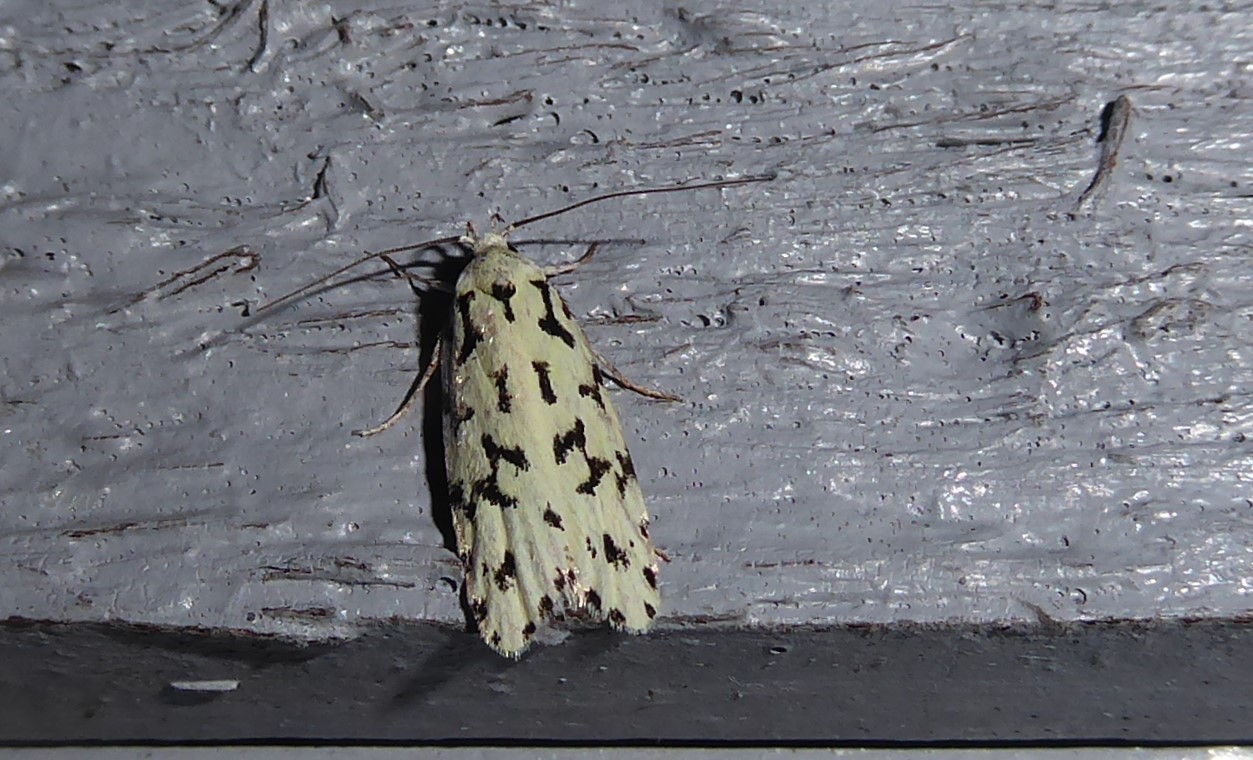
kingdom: Animalia
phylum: Arthropoda
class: Insecta
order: Lepidoptera
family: Oecophoridae
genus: Izatha
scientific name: Izatha huttoni
